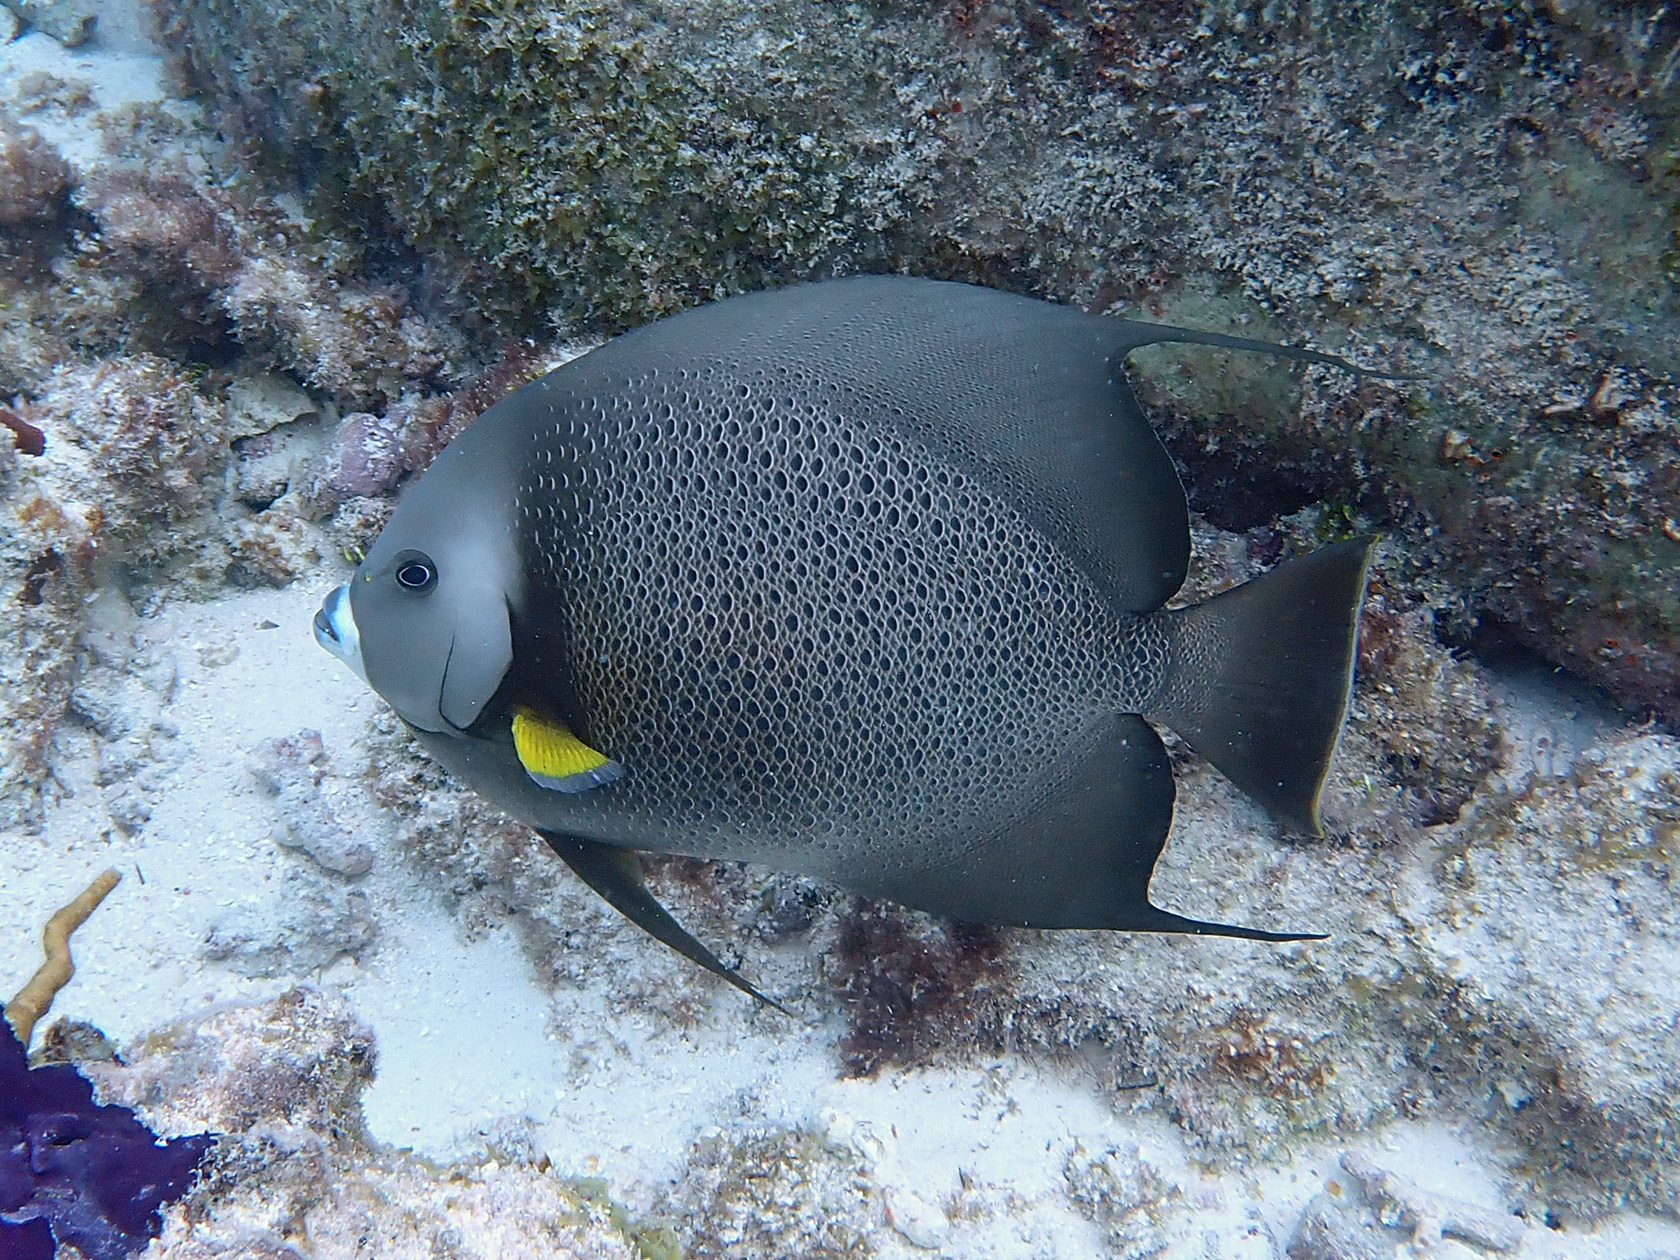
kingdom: Animalia
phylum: Chordata
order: Perciformes
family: Pomacanthidae
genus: Pomacanthus
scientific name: Pomacanthus arcuatus
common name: Gray angelfish
